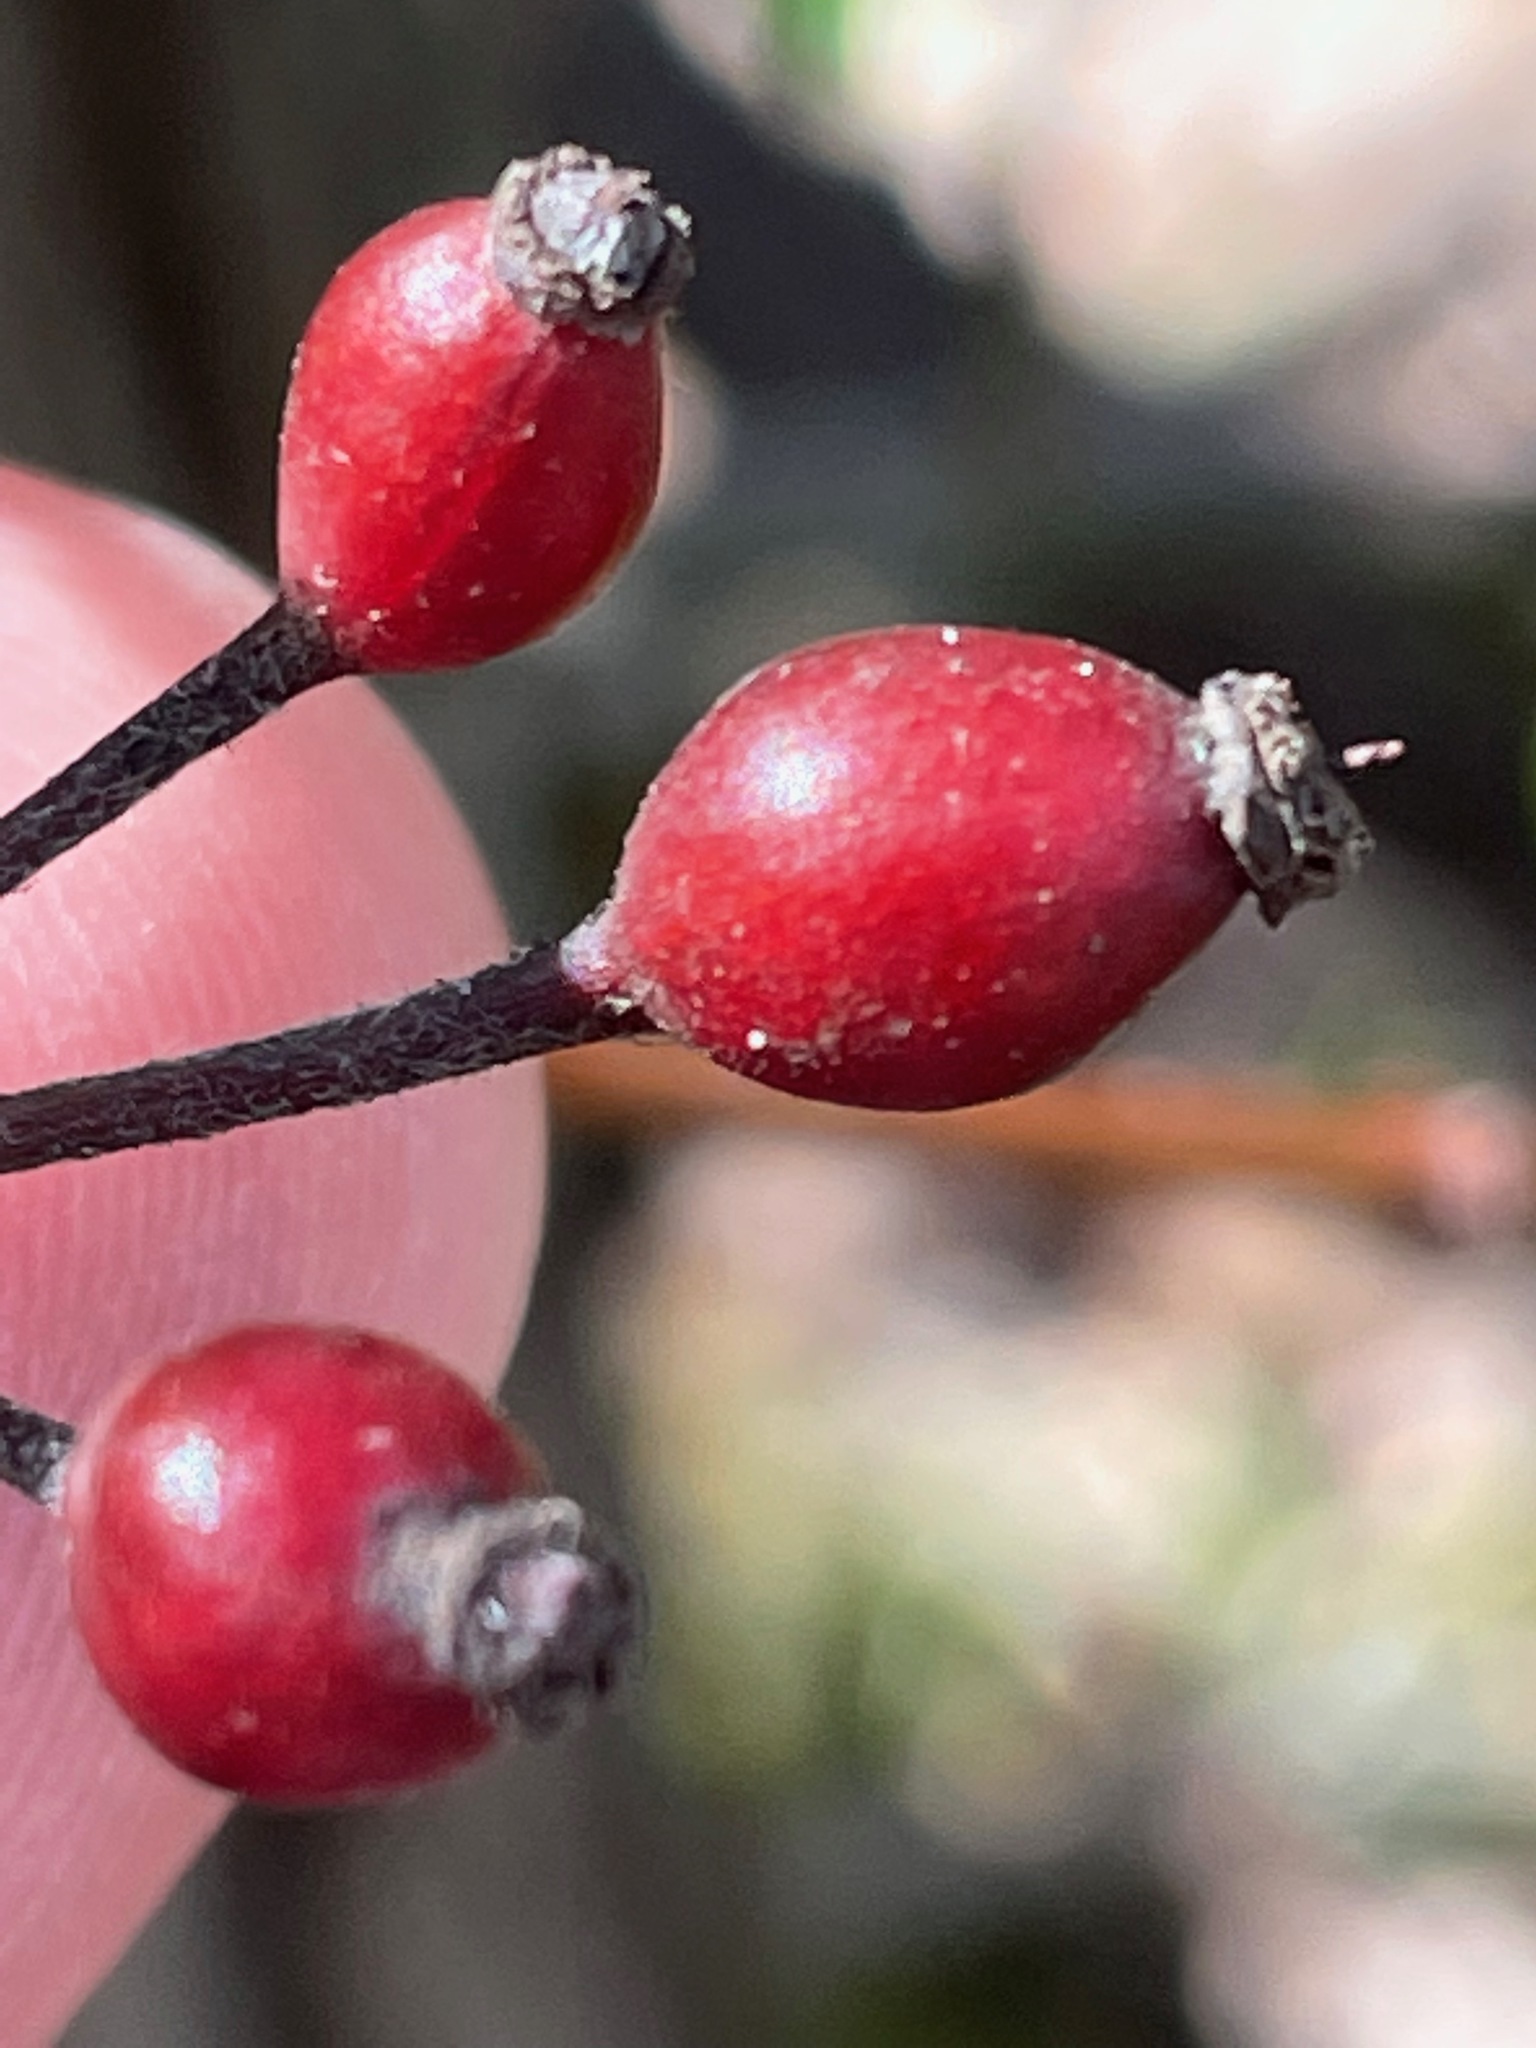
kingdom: Plantae
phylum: Tracheophyta
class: Magnoliopsida
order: Rosales
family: Rosaceae
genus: Rosa
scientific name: Rosa multiflora
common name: Multiflora rose
